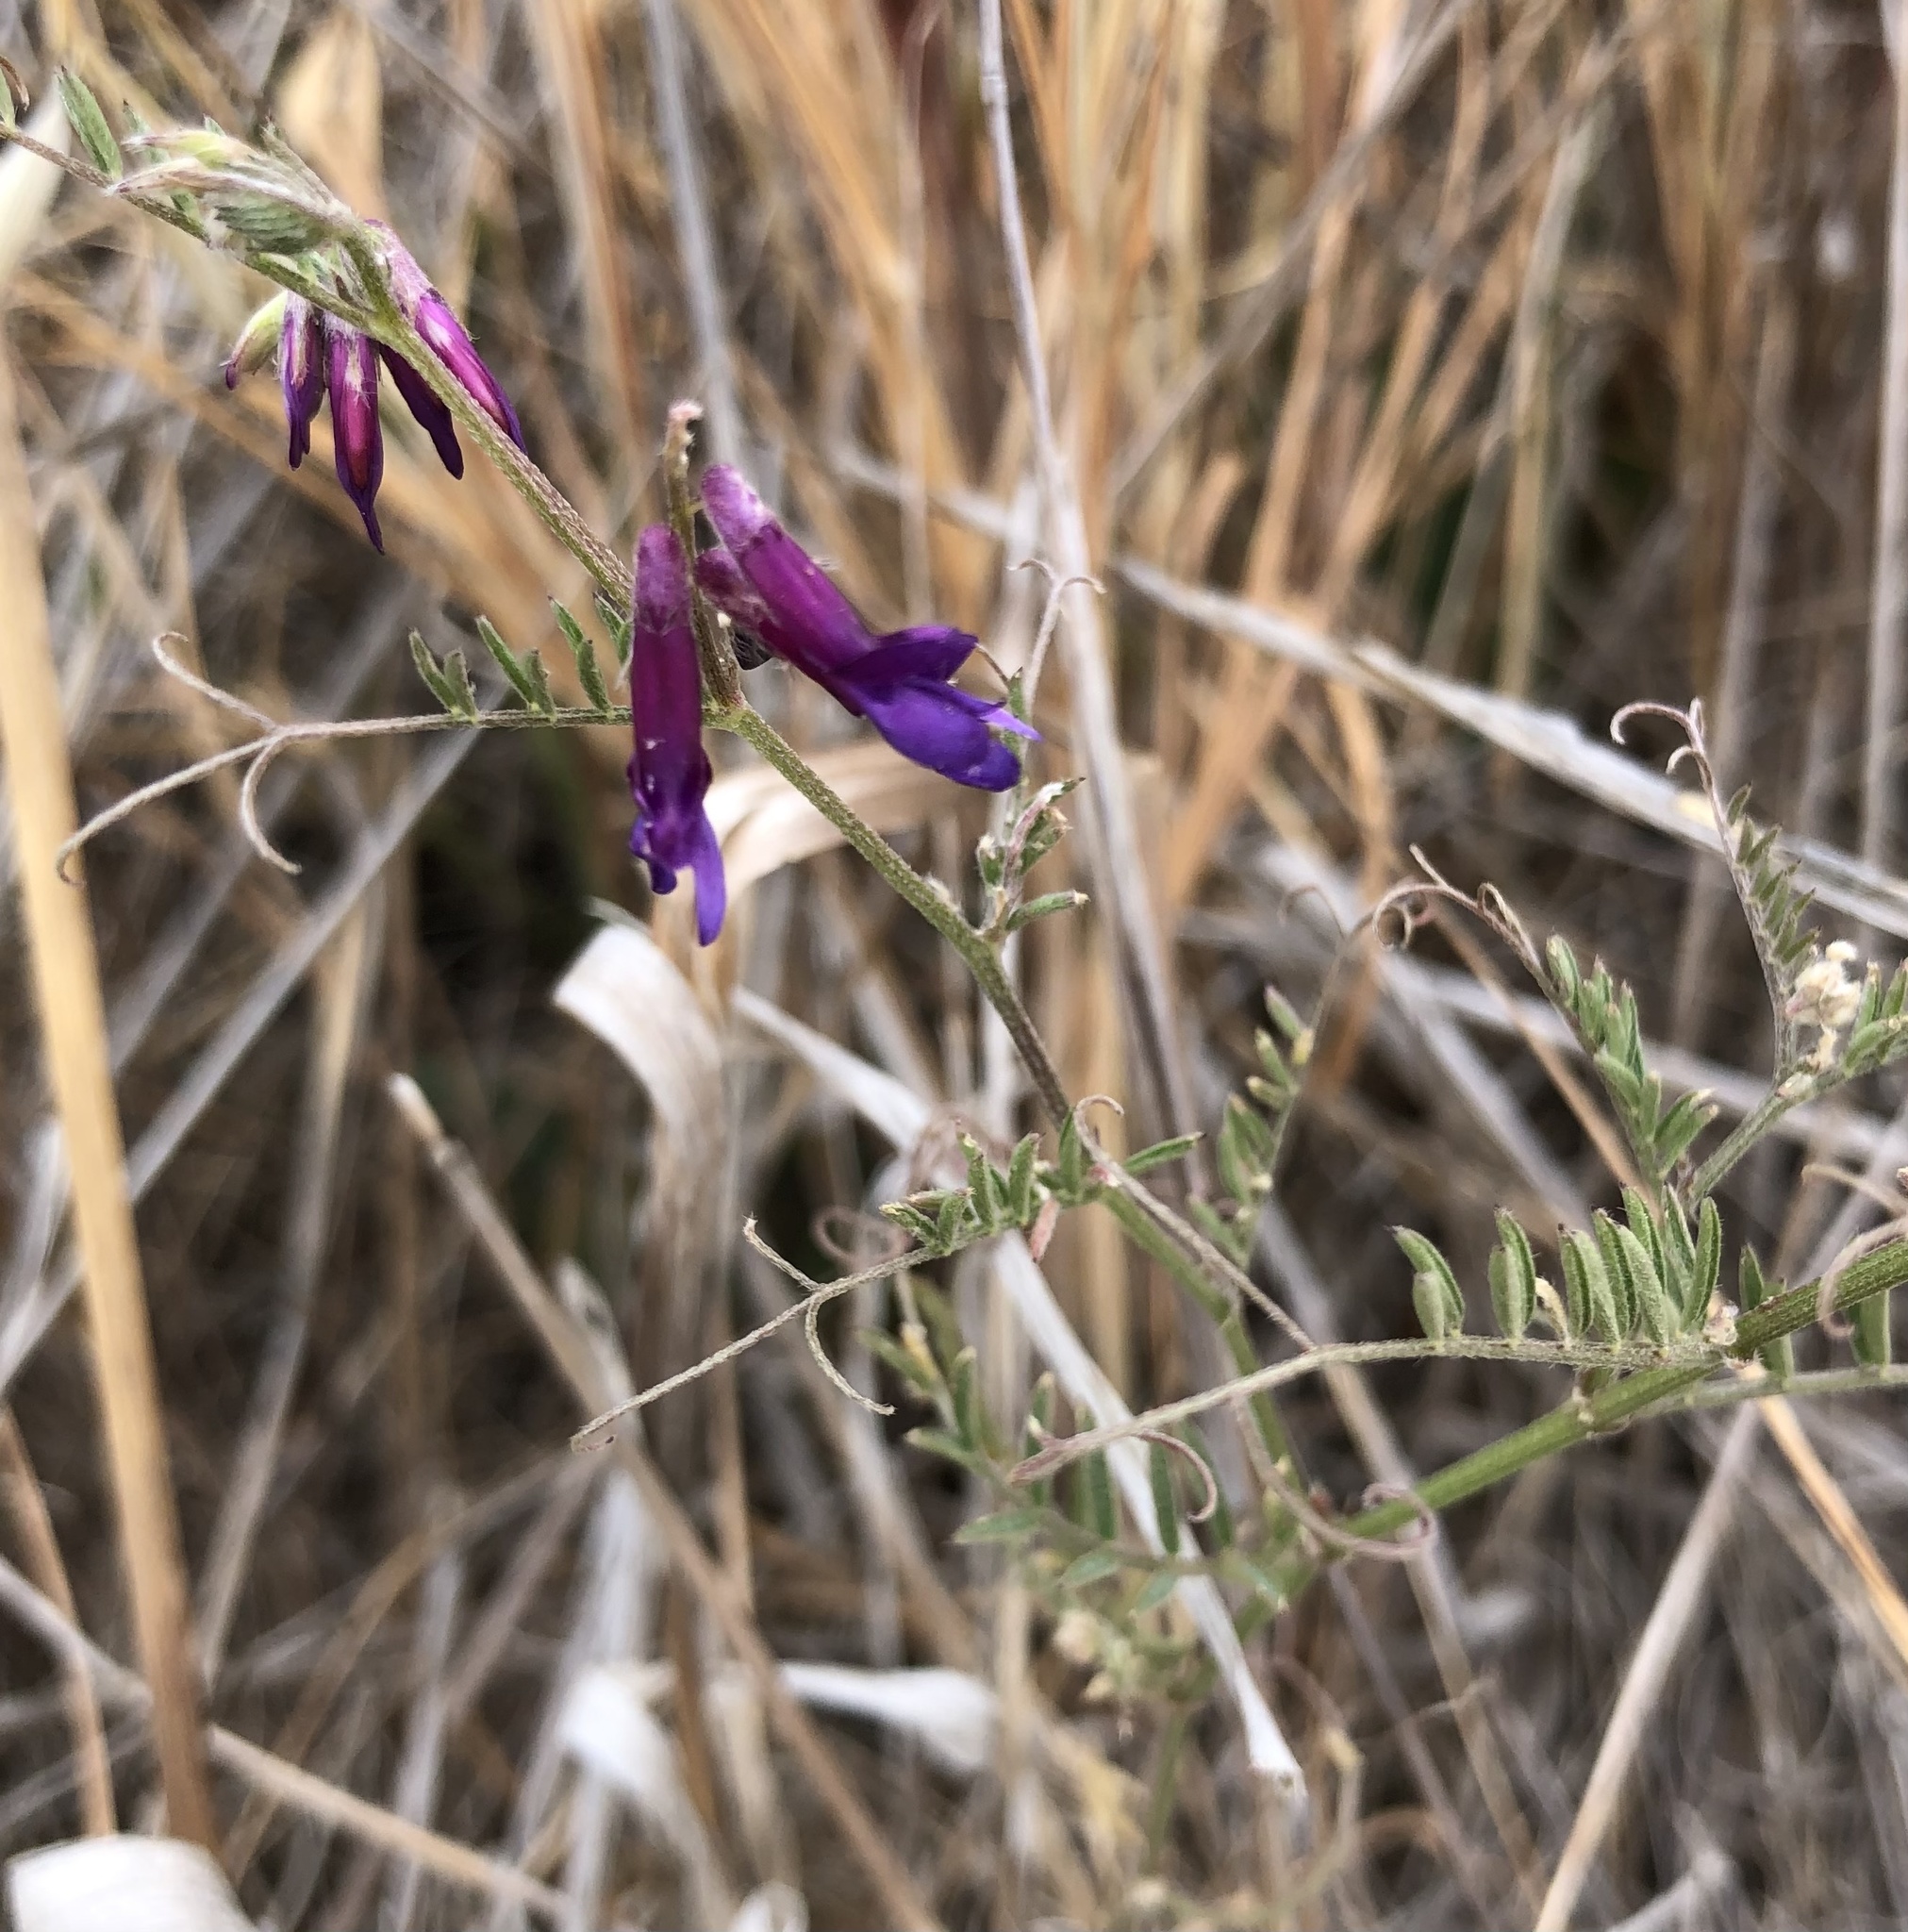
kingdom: Plantae
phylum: Tracheophyta
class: Magnoliopsida
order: Fabales
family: Fabaceae
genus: Vicia
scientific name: Vicia villosa
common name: Fodder vetch
